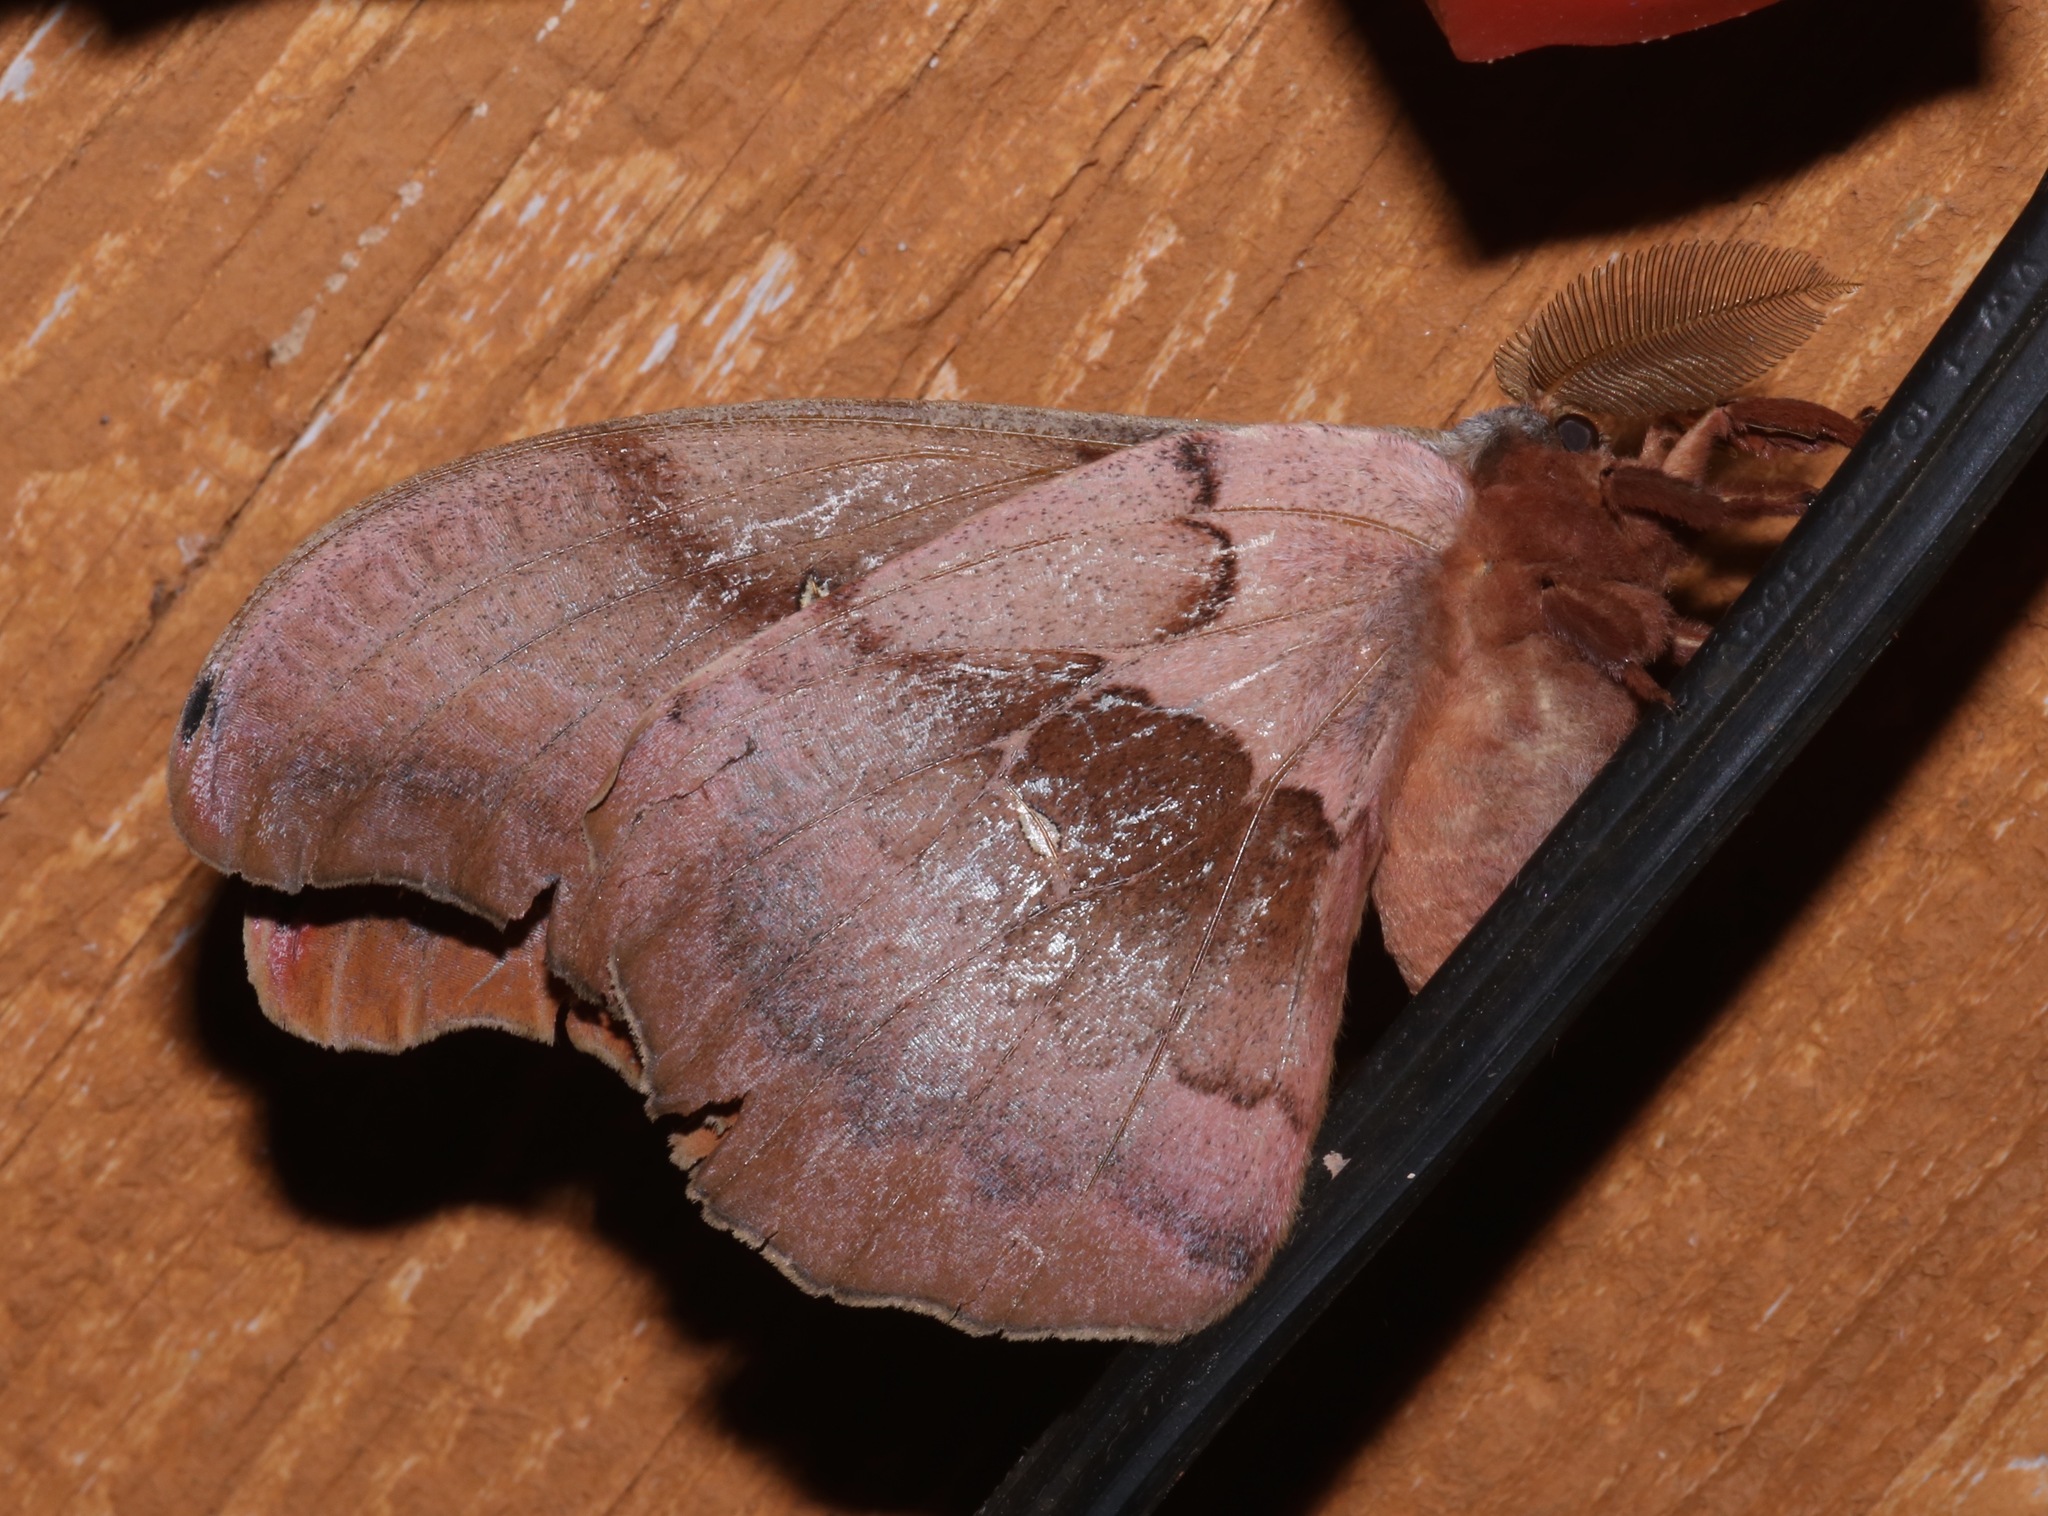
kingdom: Animalia
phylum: Arthropoda
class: Insecta
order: Lepidoptera
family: Saturniidae
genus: Antheraea
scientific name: Antheraea polyphemus
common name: Polyphemus moth
